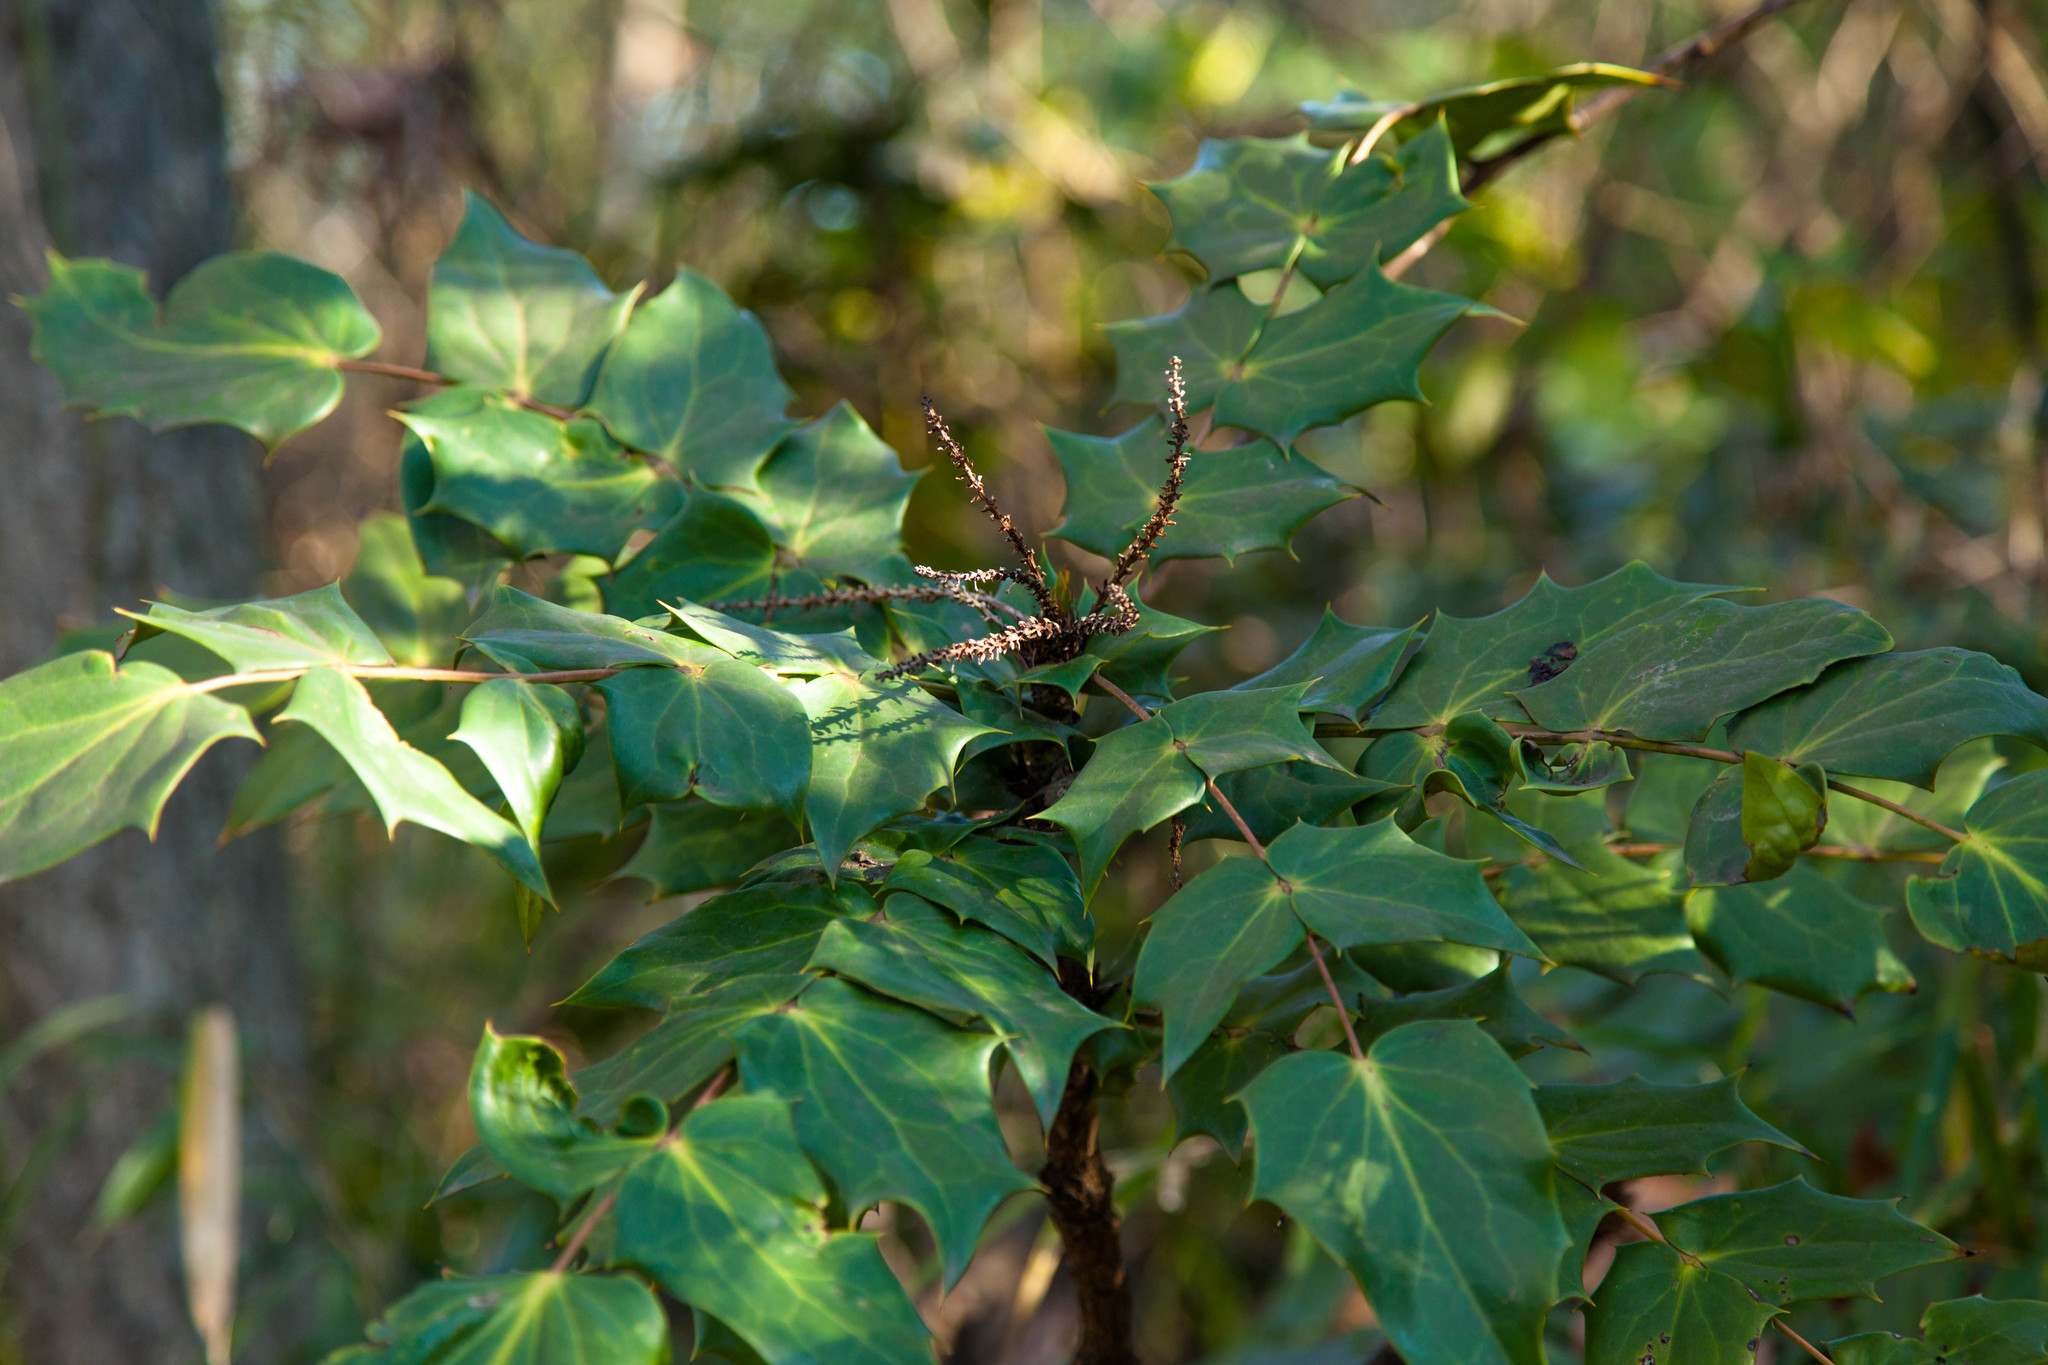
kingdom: Plantae
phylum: Tracheophyta
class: Magnoliopsida
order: Ranunculales
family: Berberidaceae
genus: Mahonia
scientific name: Mahonia bealei
